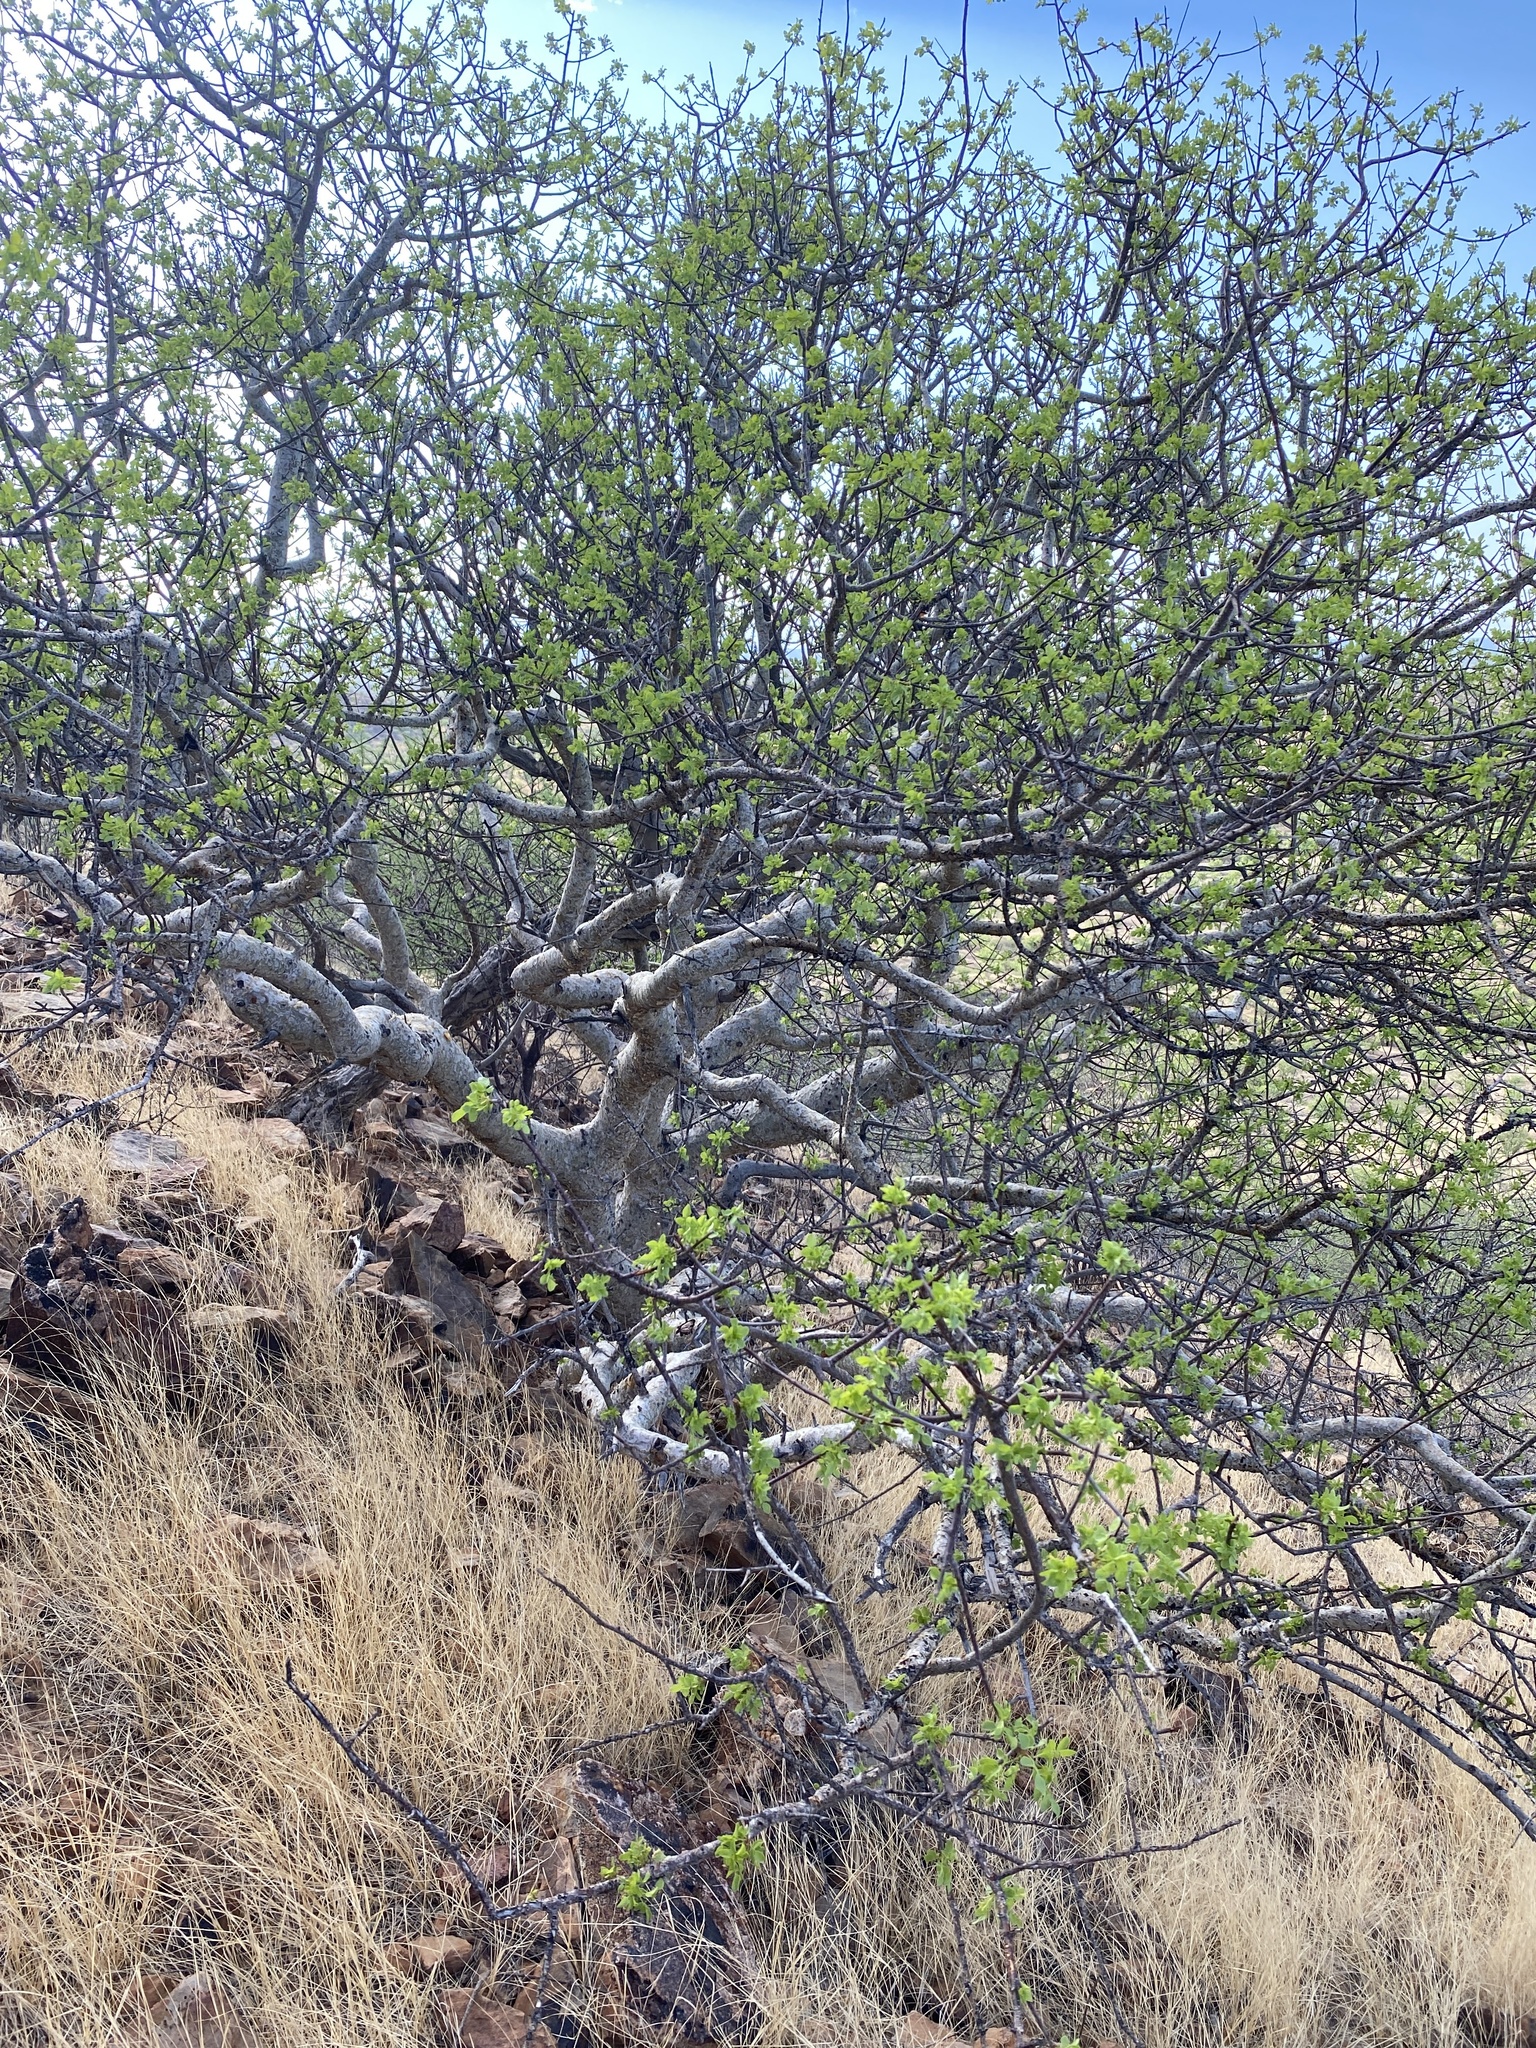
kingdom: Plantae
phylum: Tracheophyta
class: Magnoliopsida
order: Sapindales
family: Burseraceae
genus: Commiphora
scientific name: Commiphora tenuipetiolata
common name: Satin-bark corkwood
